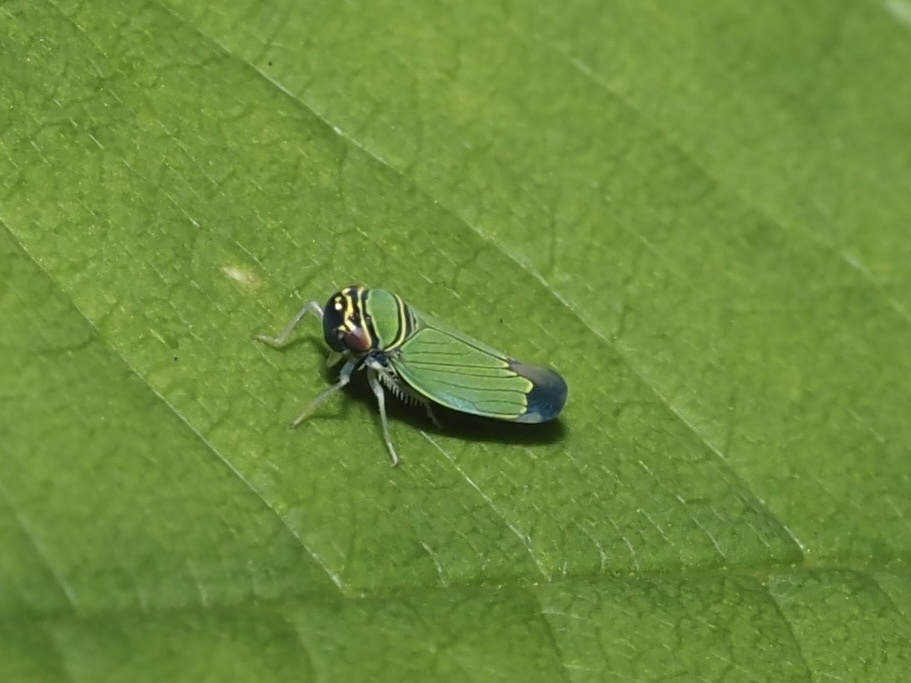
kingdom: Animalia
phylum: Arthropoda
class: Insecta
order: Hemiptera
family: Cicadellidae
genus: Tylozygus
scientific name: Tylozygus geometricus
